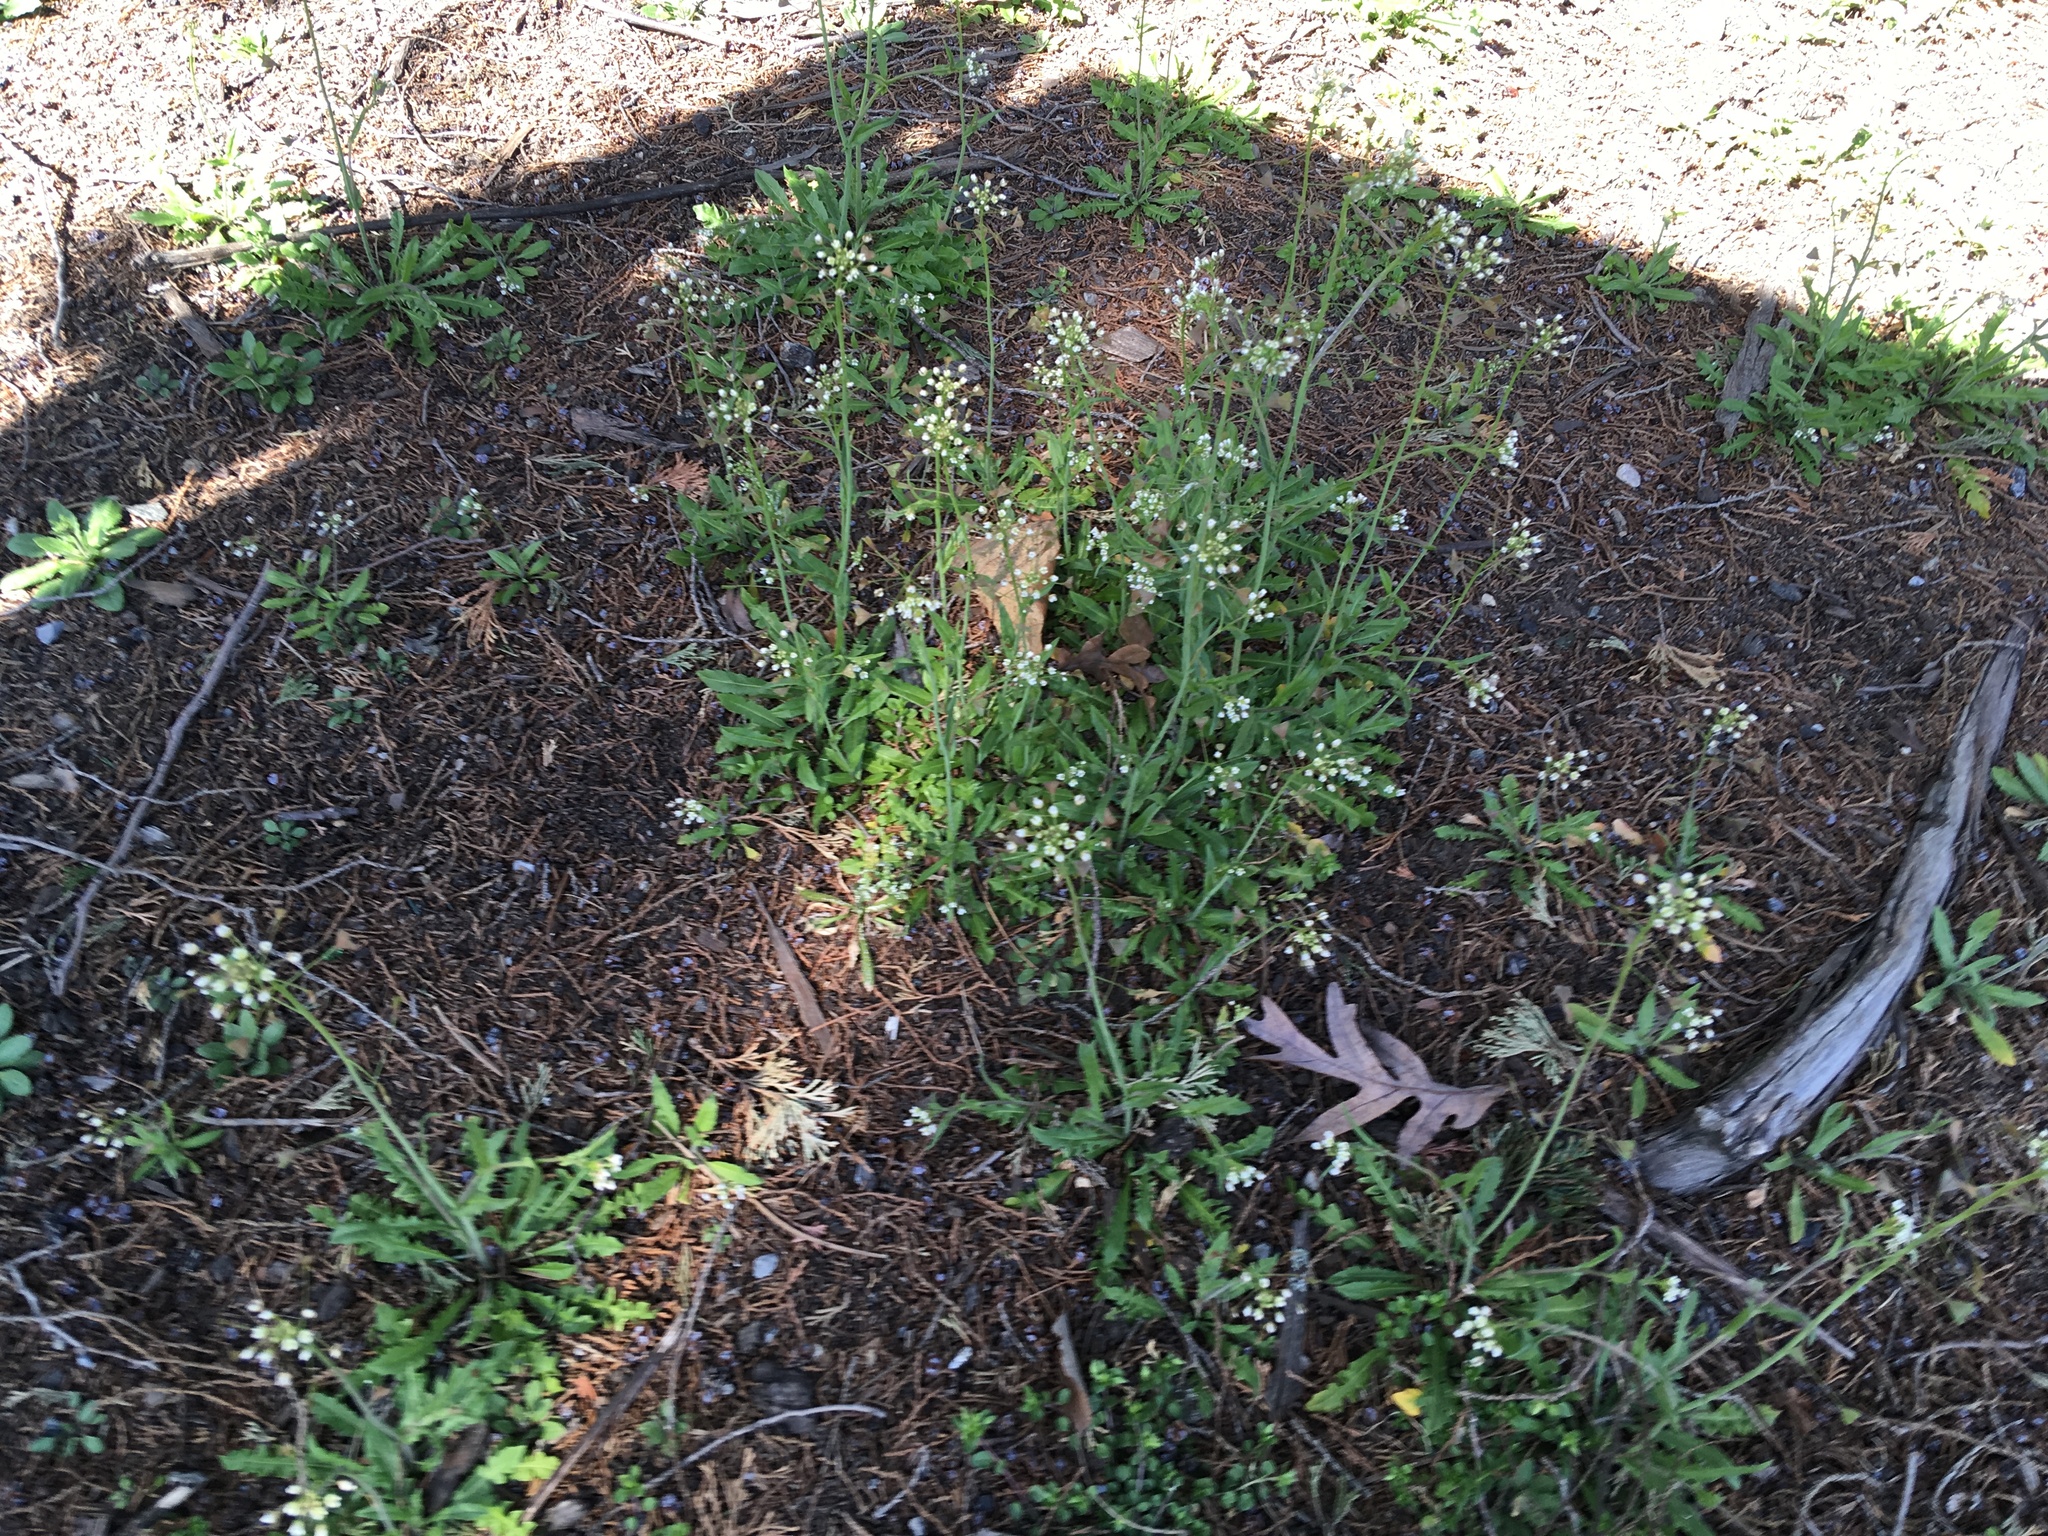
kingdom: Plantae
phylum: Tracheophyta
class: Magnoliopsida
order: Brassicales
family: Brassicaceae
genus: Arabidopsis
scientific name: Arabidopsis thaliana
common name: Thale cress
